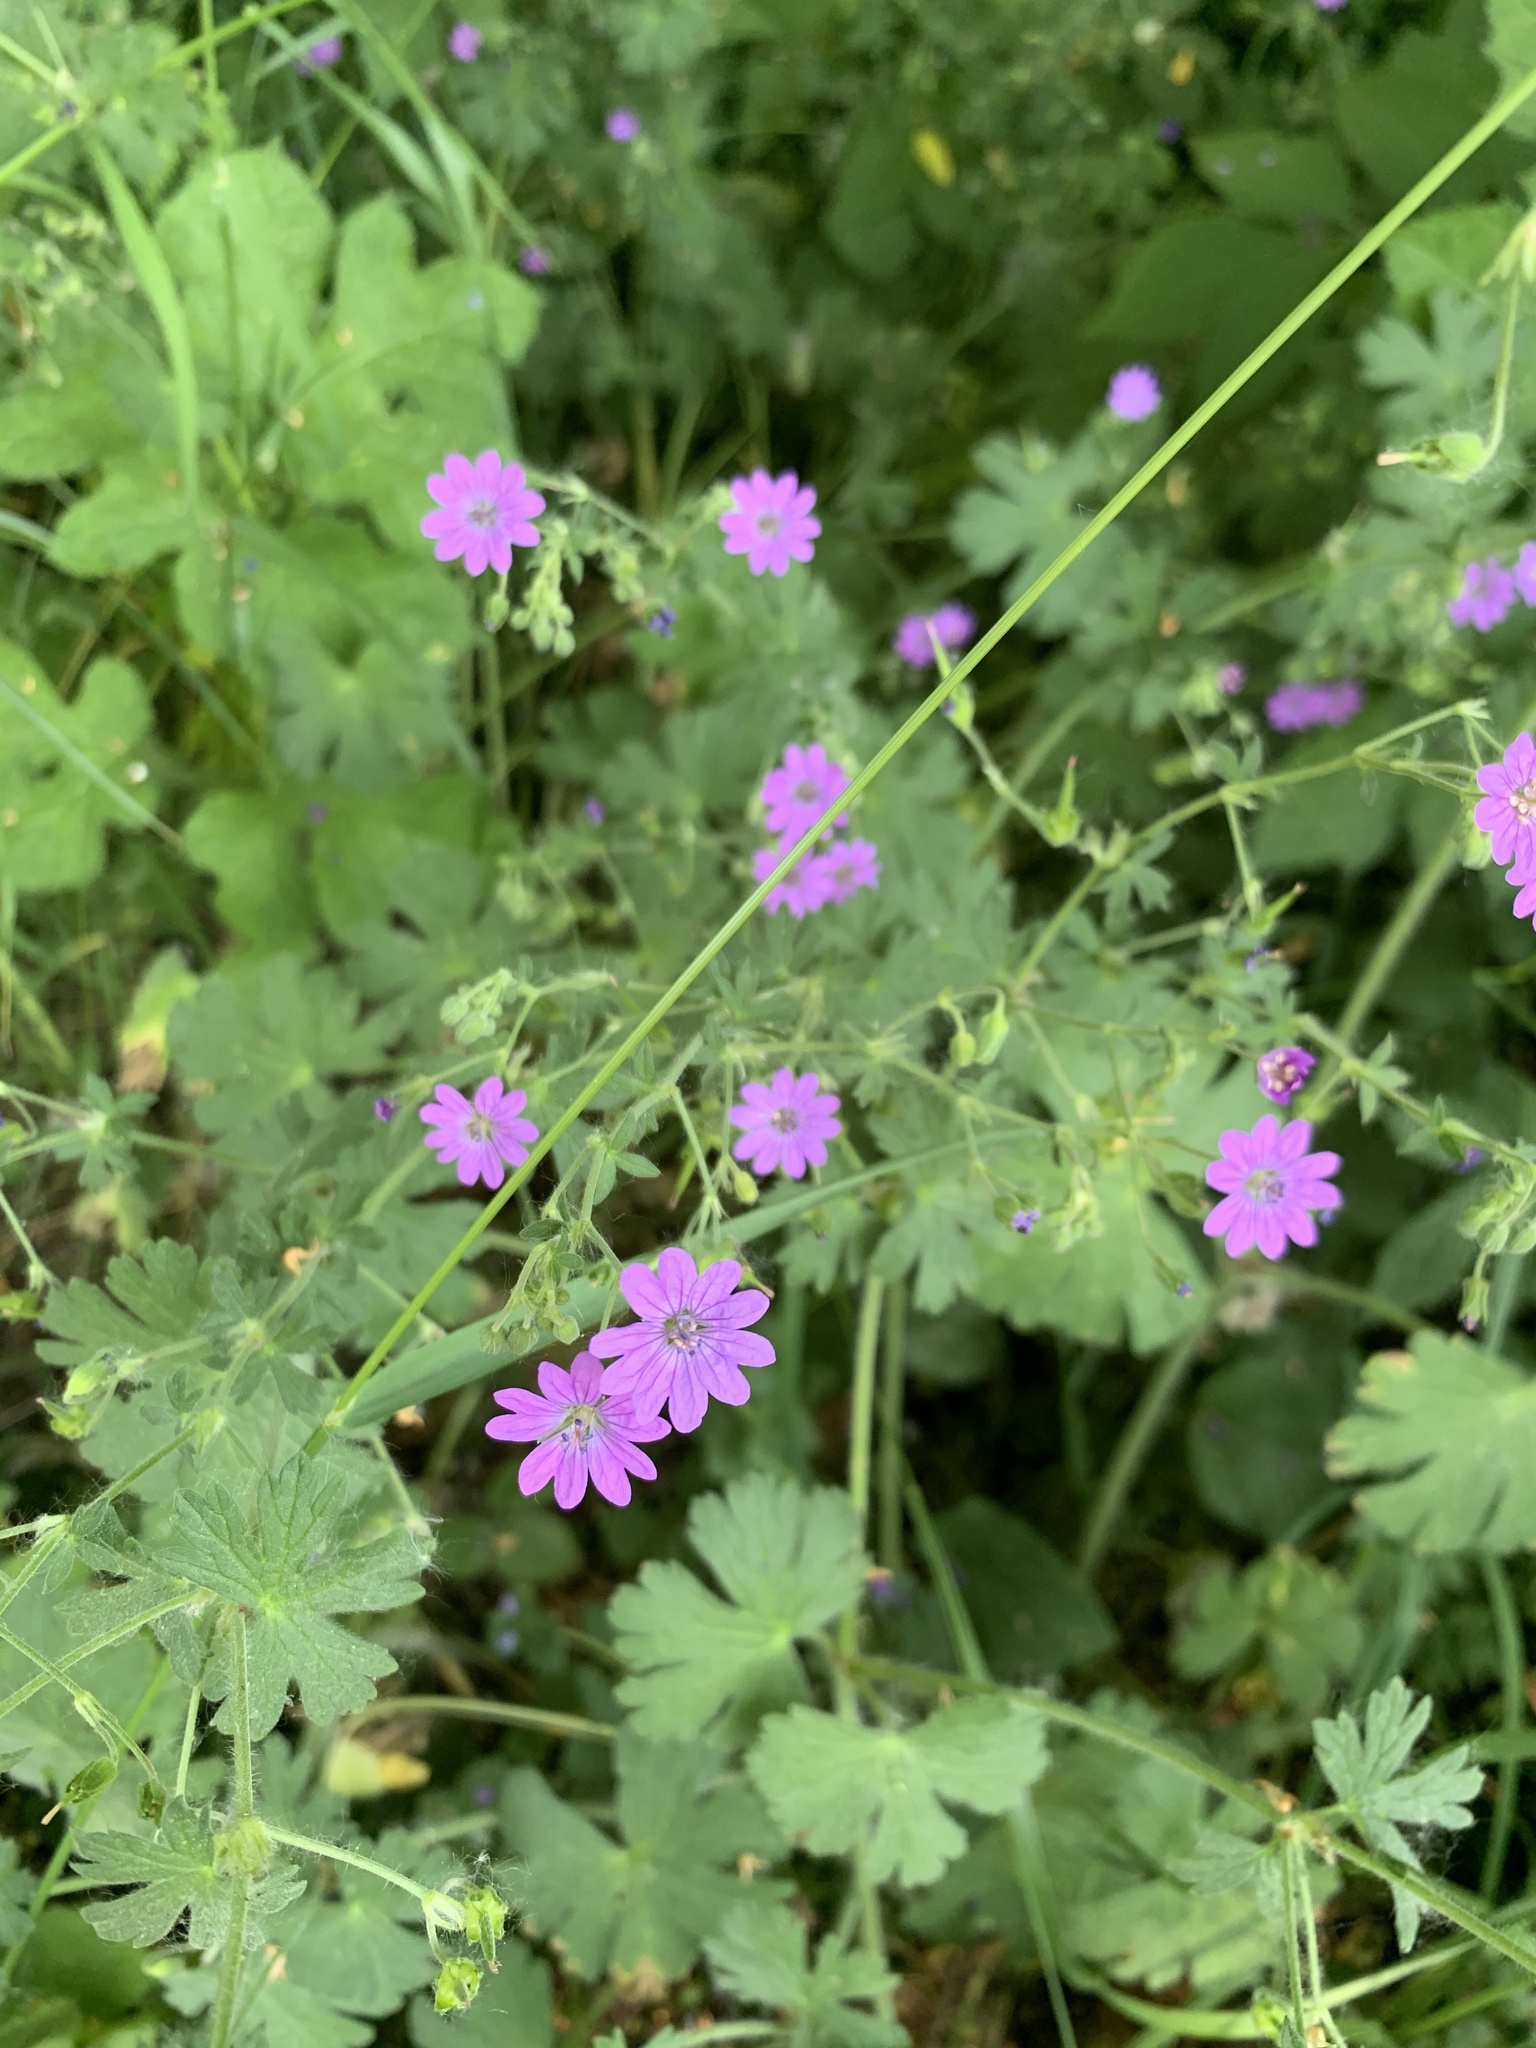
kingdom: Plantae
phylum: Tracheophyta
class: Magnoliopsida
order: Geraniales
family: Geraniaceae
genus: Geranium
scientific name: Geranium pyrenaicum
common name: Hedgerow crane's-bill
